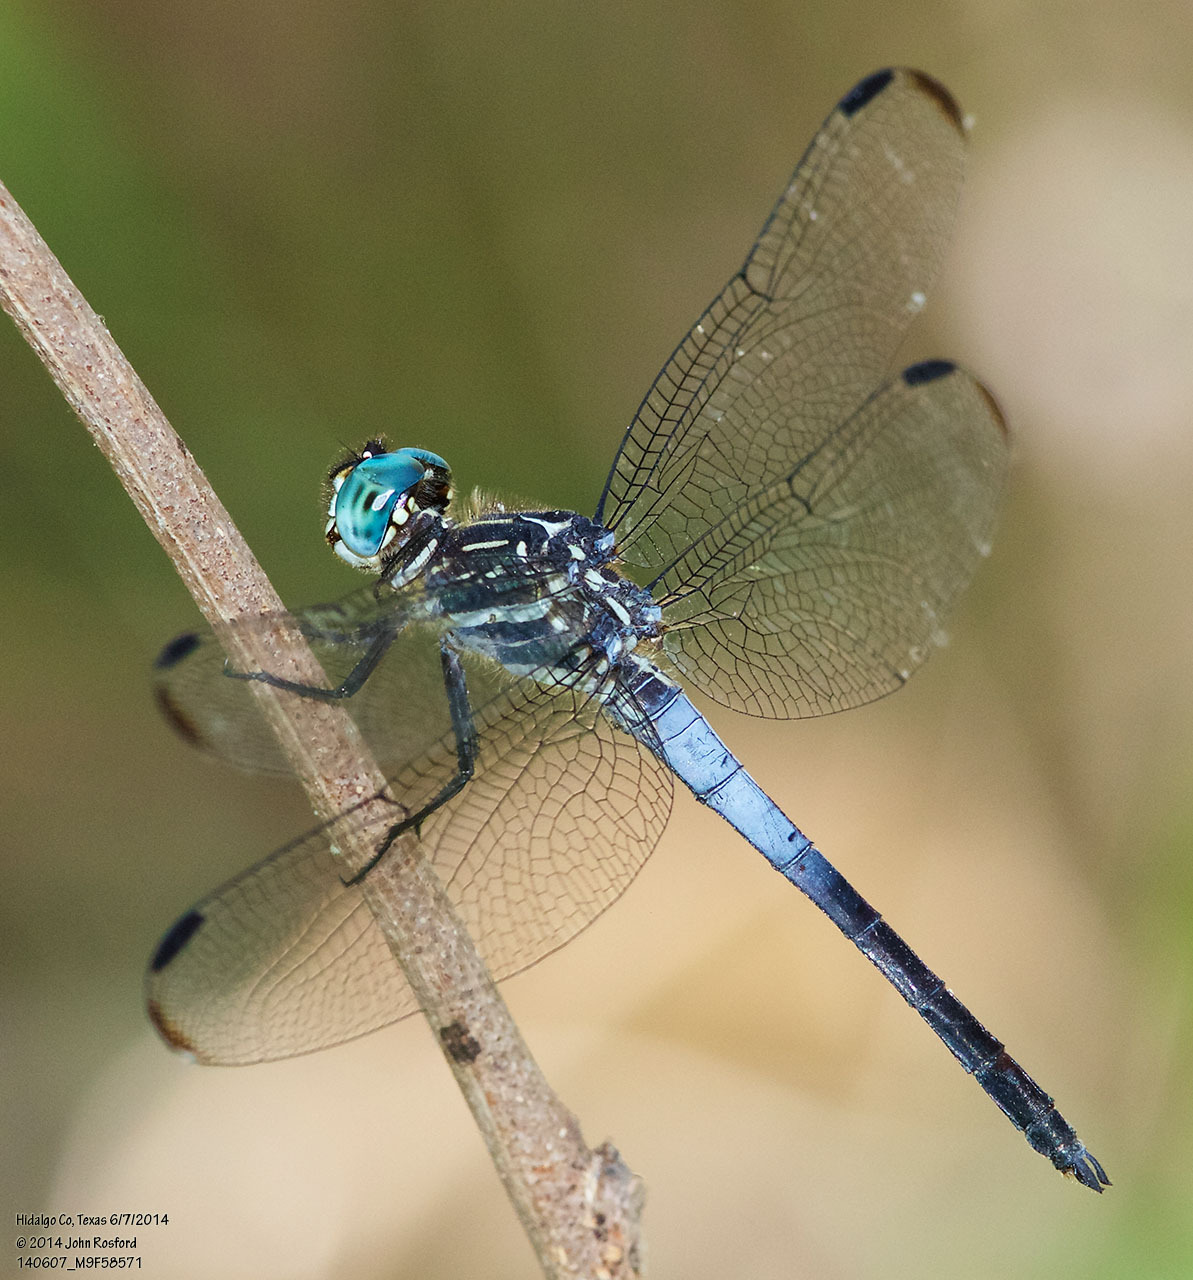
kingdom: Animalia
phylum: Arthropoda
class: Insecta
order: Odonata
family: Libellulidae
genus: Cannaphila
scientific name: Cannaphila insularis
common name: Gray-waisted skimmer
